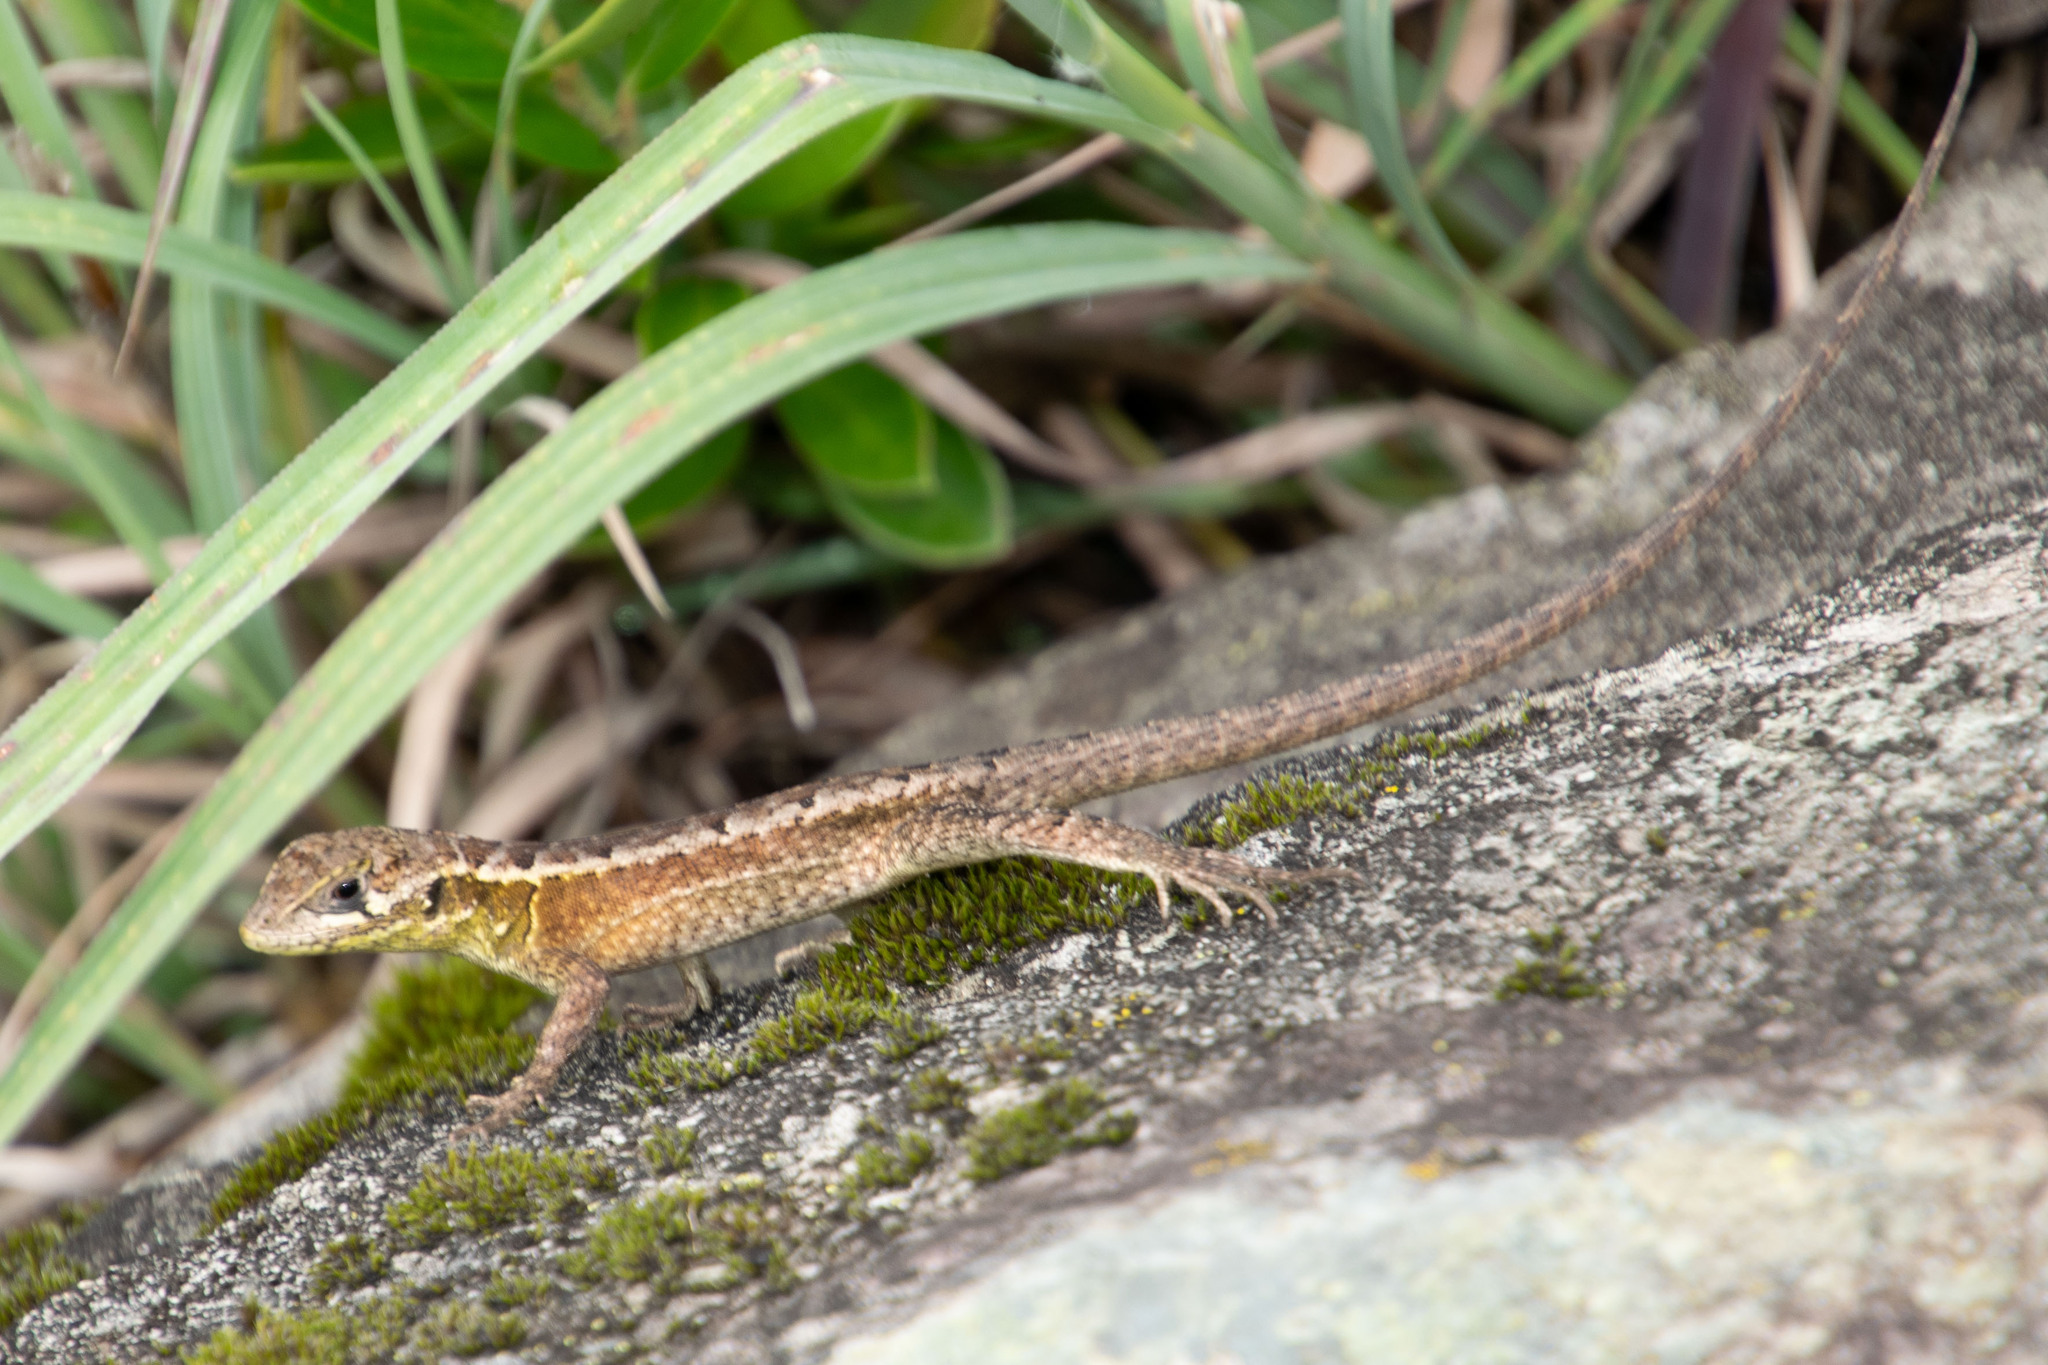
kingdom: Animalia
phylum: Chordata
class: Squamata
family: Tropiduridae
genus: Stenocercus
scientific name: Stenocercus crassicaudatus
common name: Spiny whorltail iguana
